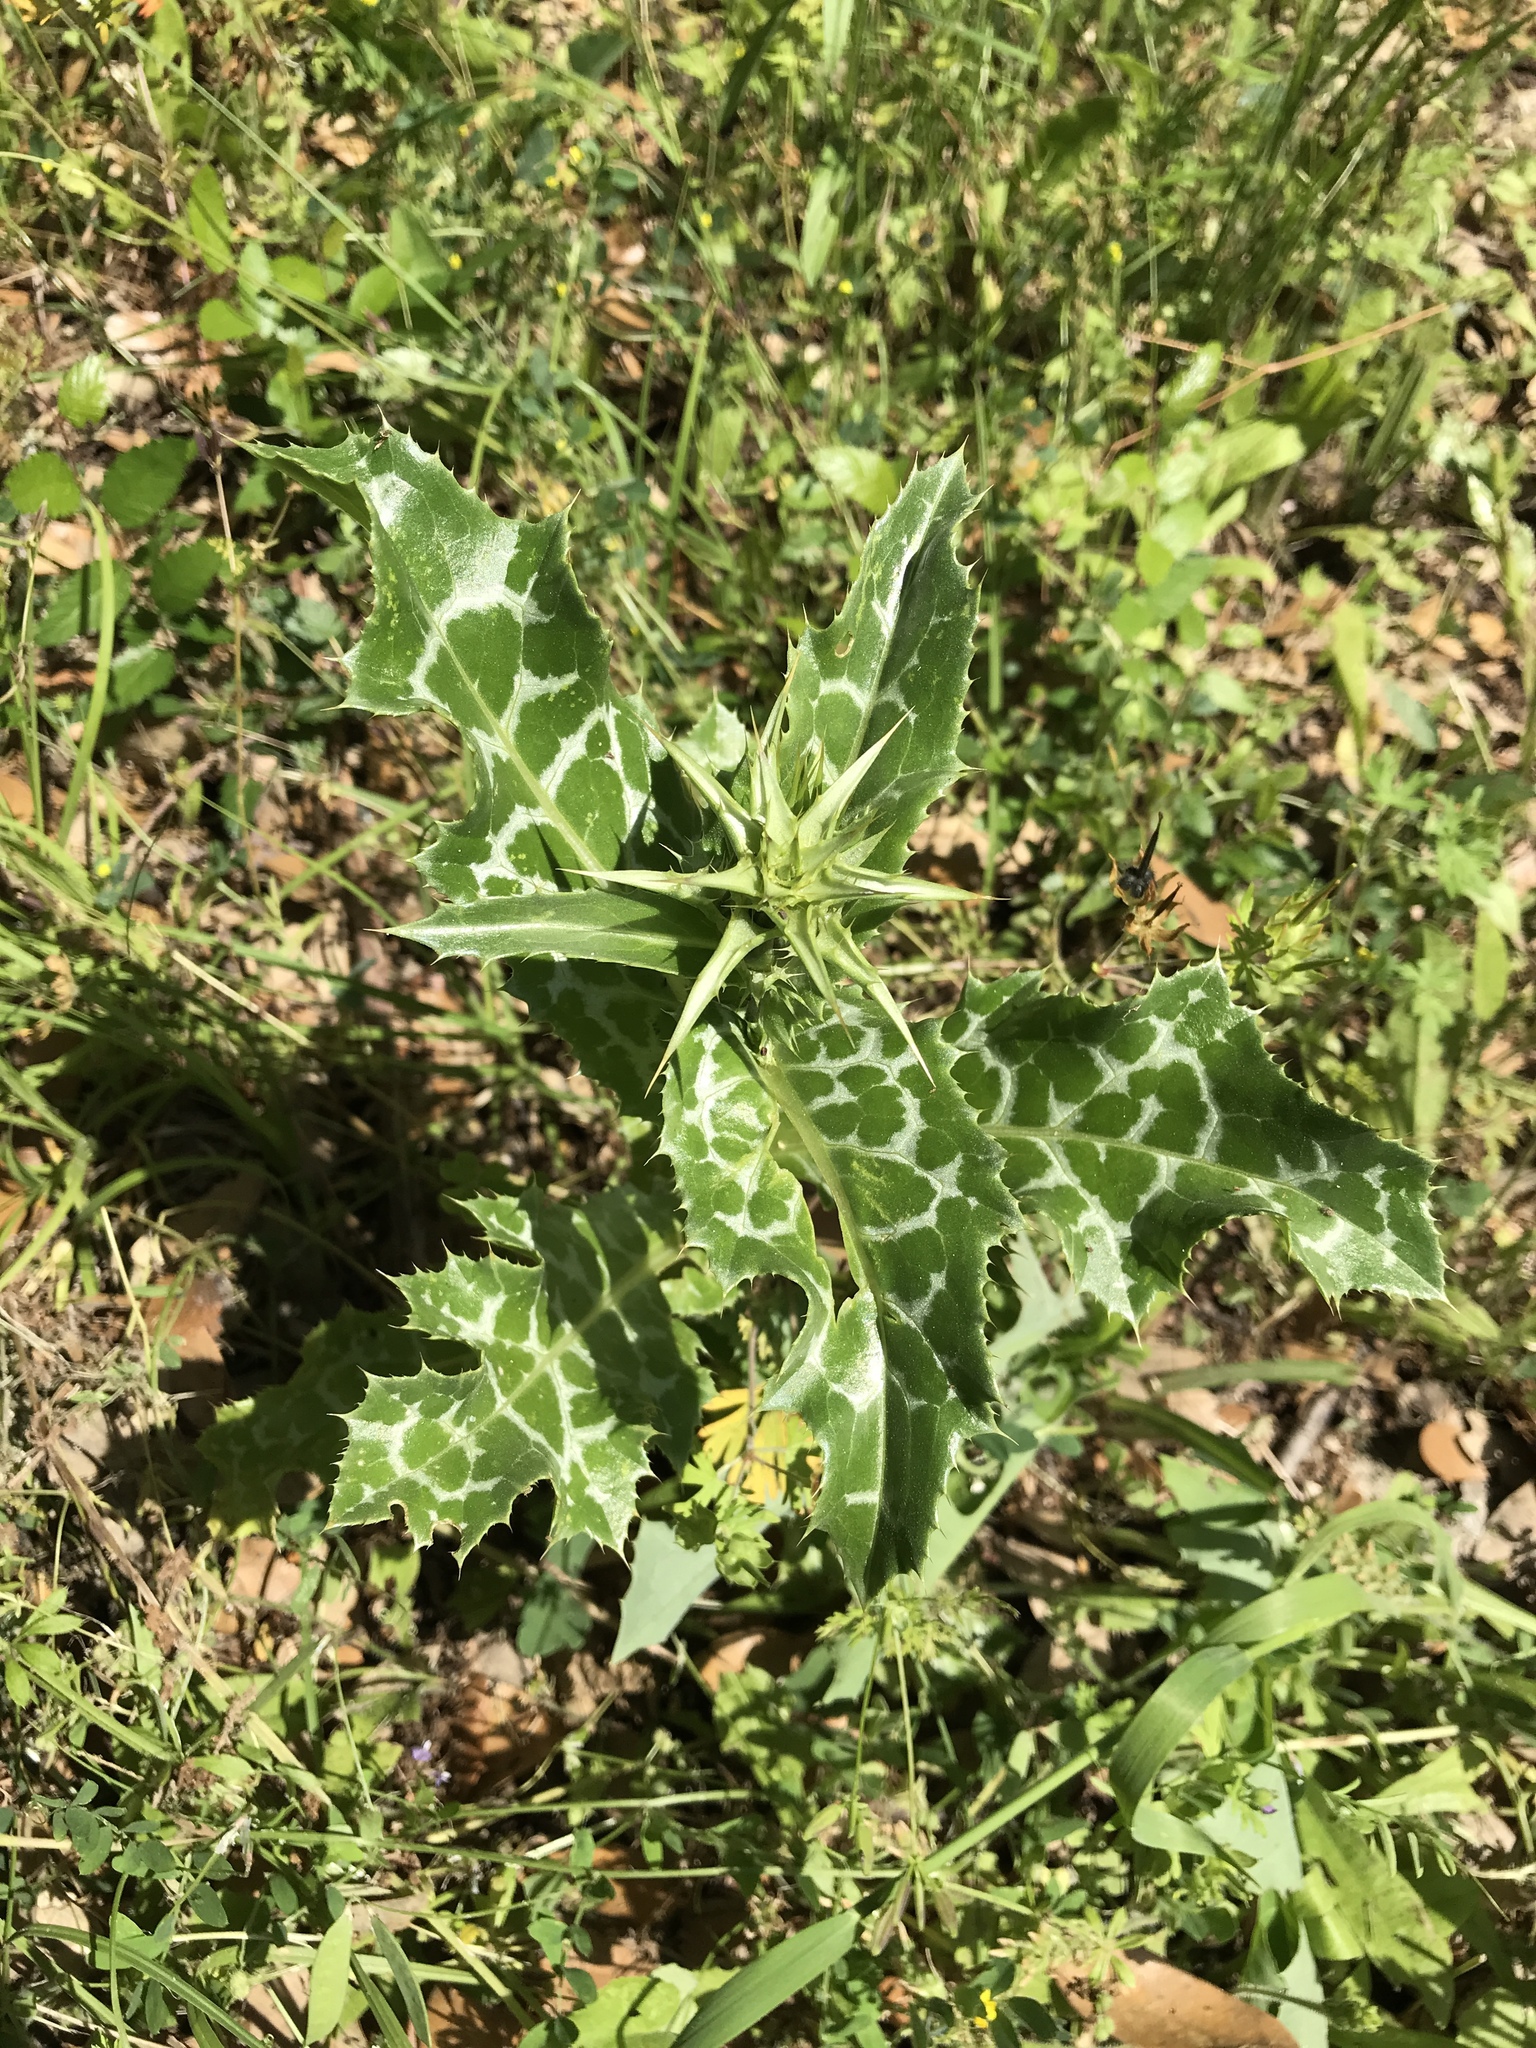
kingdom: Plantae
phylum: Tracheophyta
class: Magnoliopsida
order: Asterales
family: Asteraceae
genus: Silybum
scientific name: Silybum marianum
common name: Milk thistle
